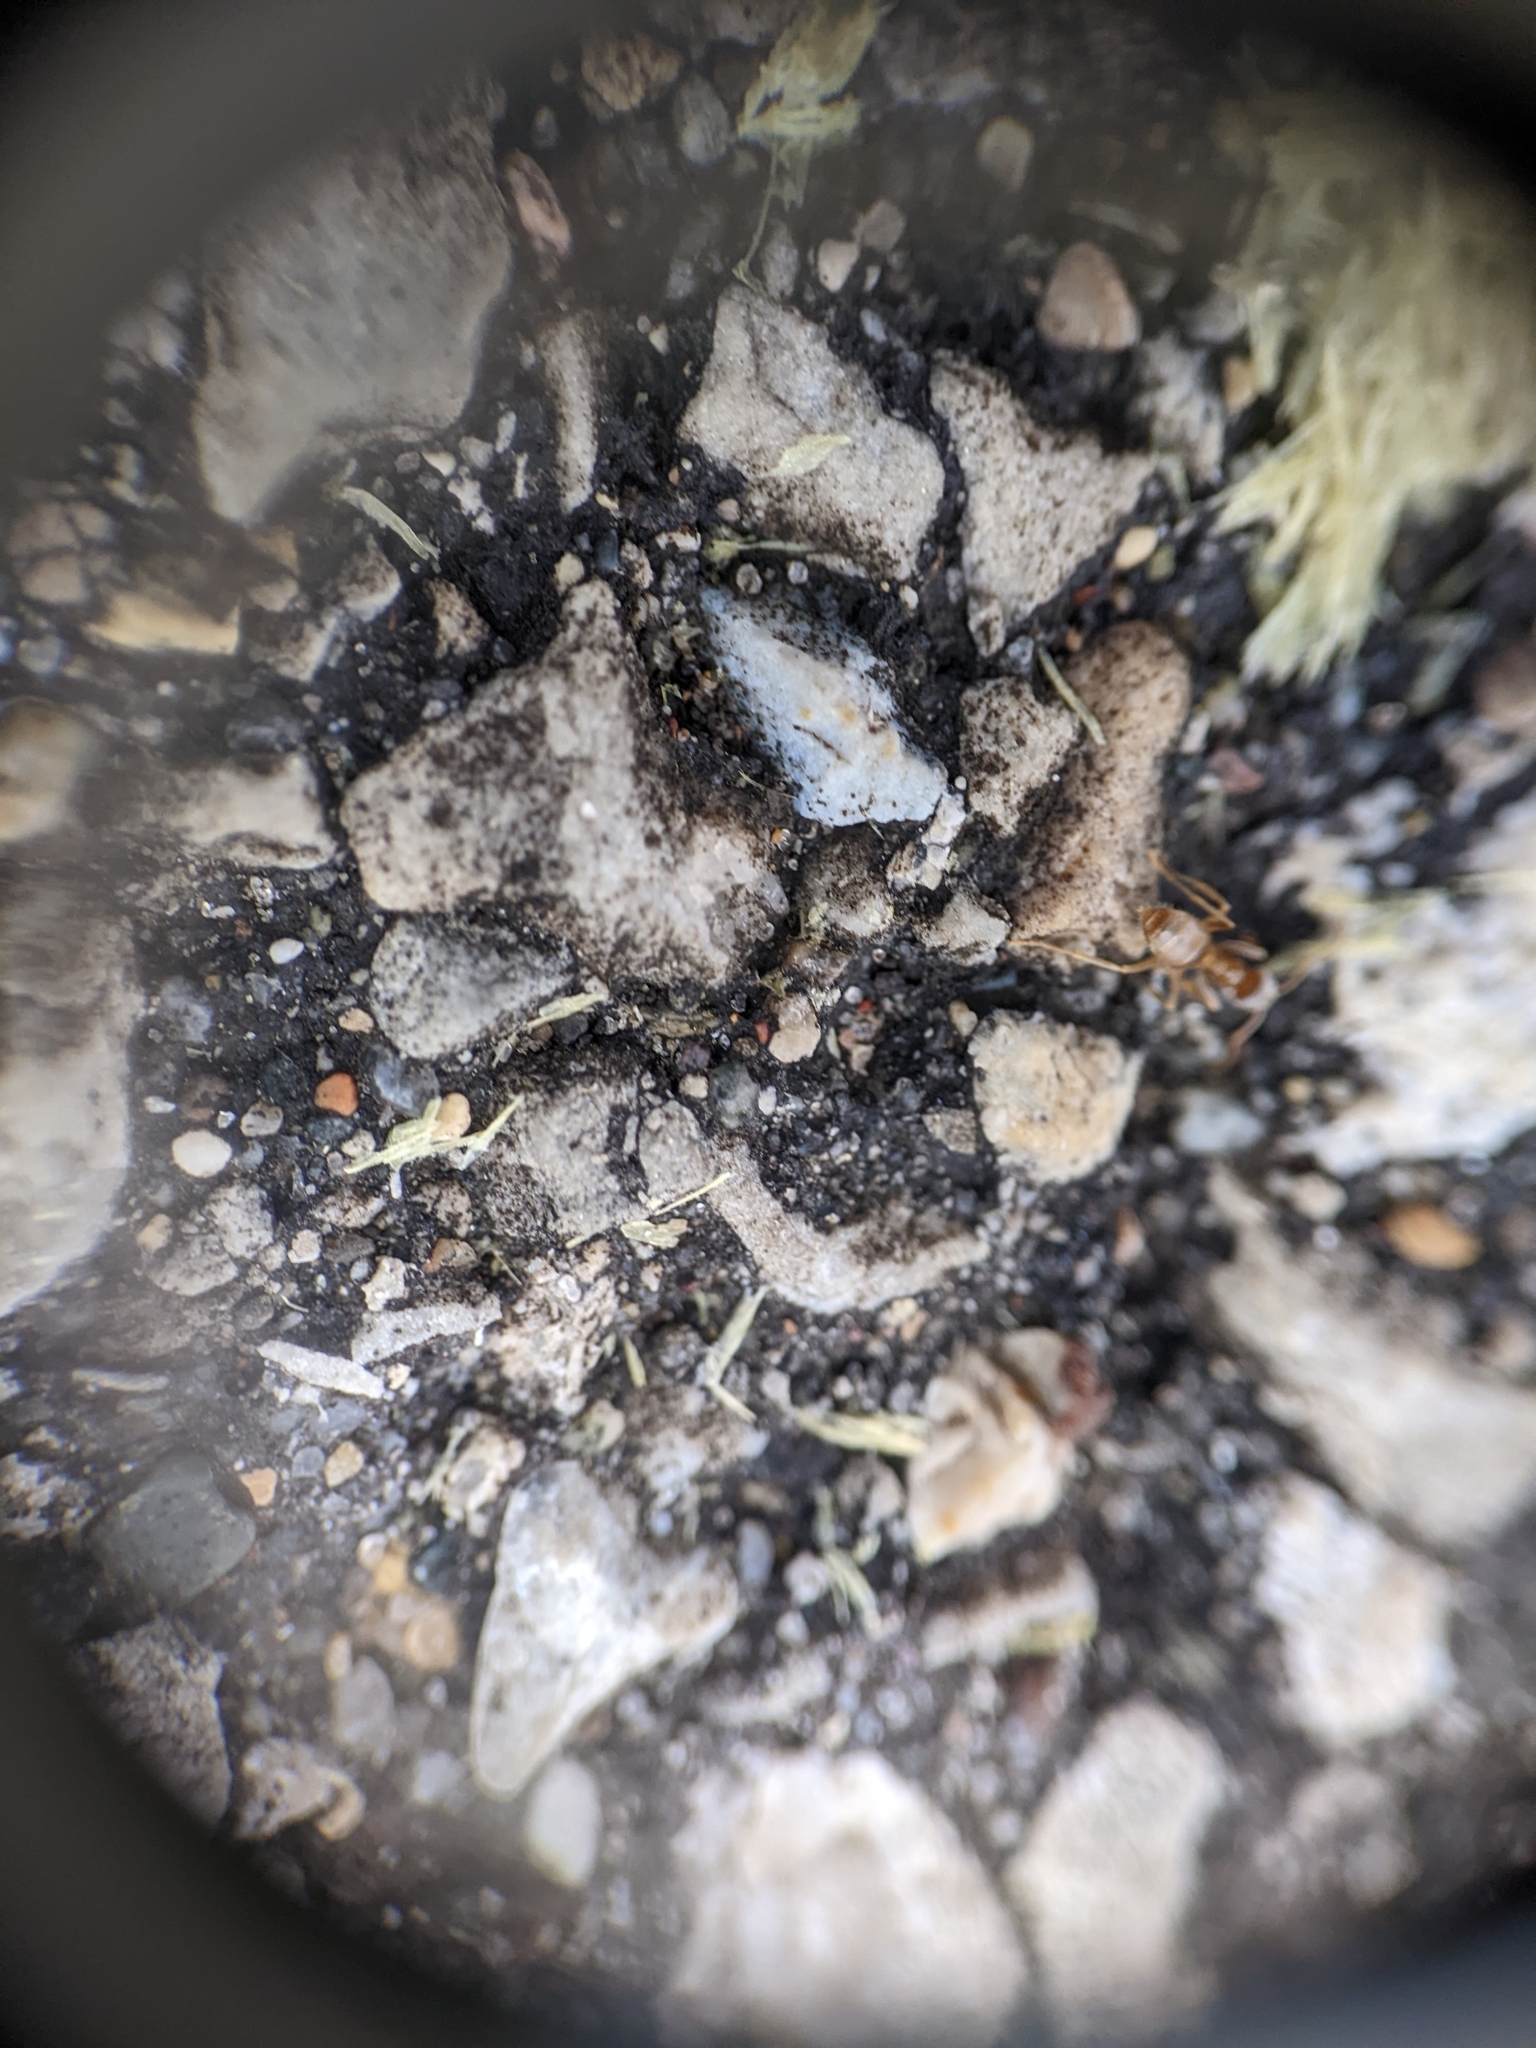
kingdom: Animalia
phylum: Arthropoda
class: Insecta
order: Hymenoptera
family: Formicidae
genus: Lasius
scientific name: Lasius neoniger
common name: Turfgrass ant
